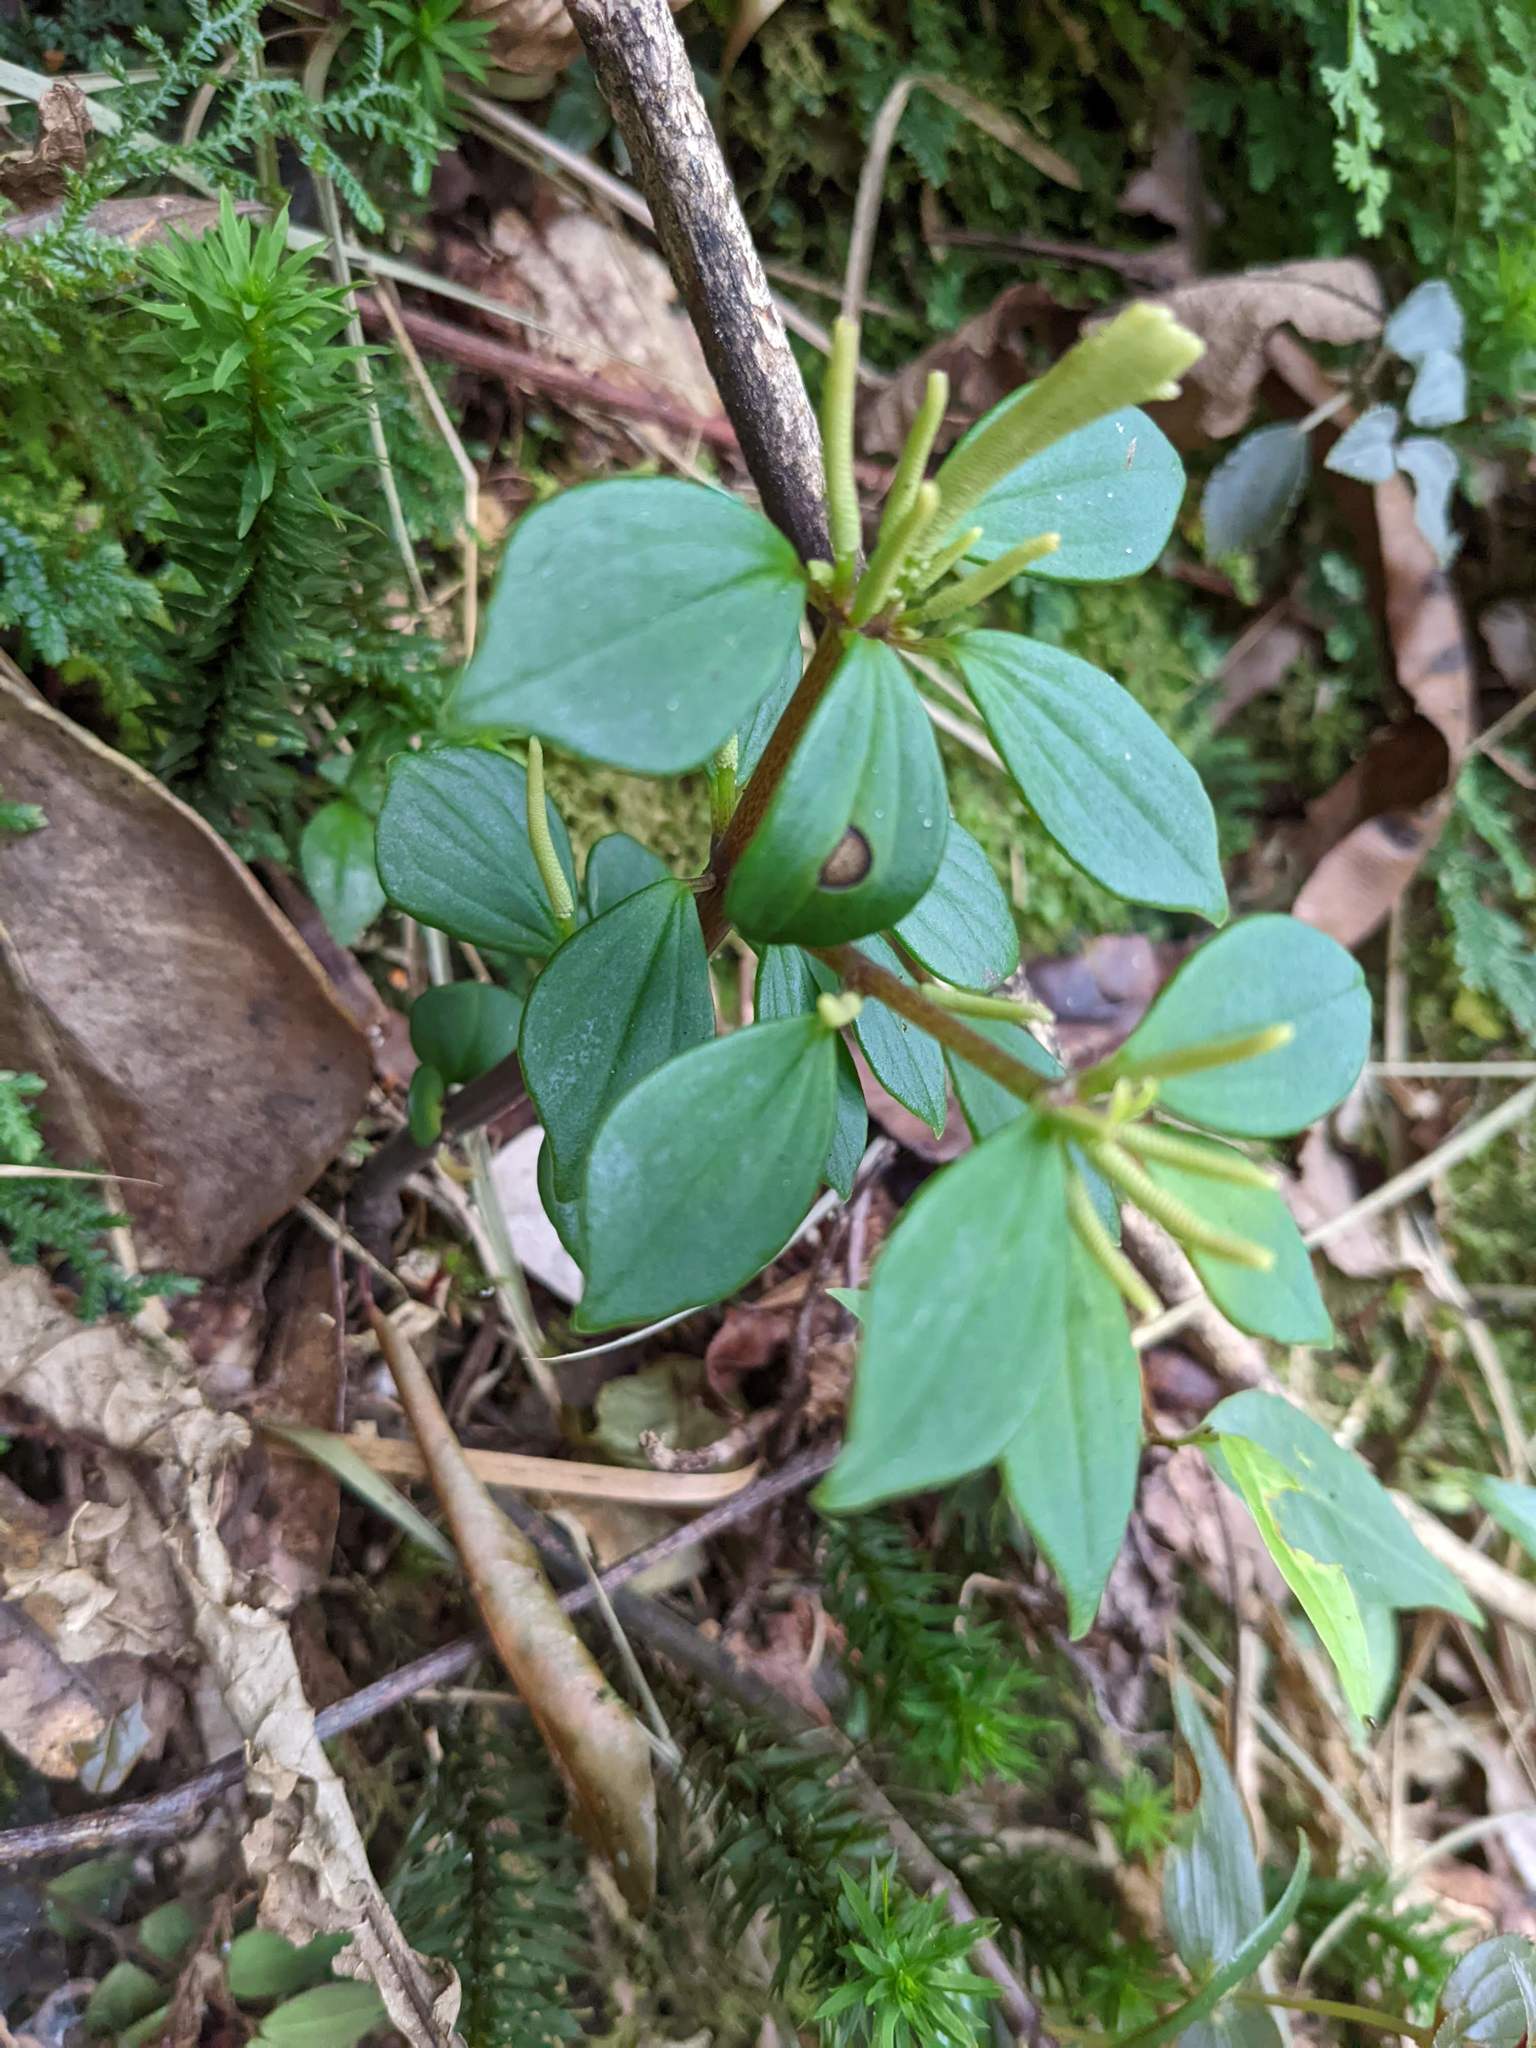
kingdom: Plantae
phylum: Tracheophyta
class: Magnoliopsida
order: Piperales
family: Piperaceae
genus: Peperomia
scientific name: Peperomia palmana
